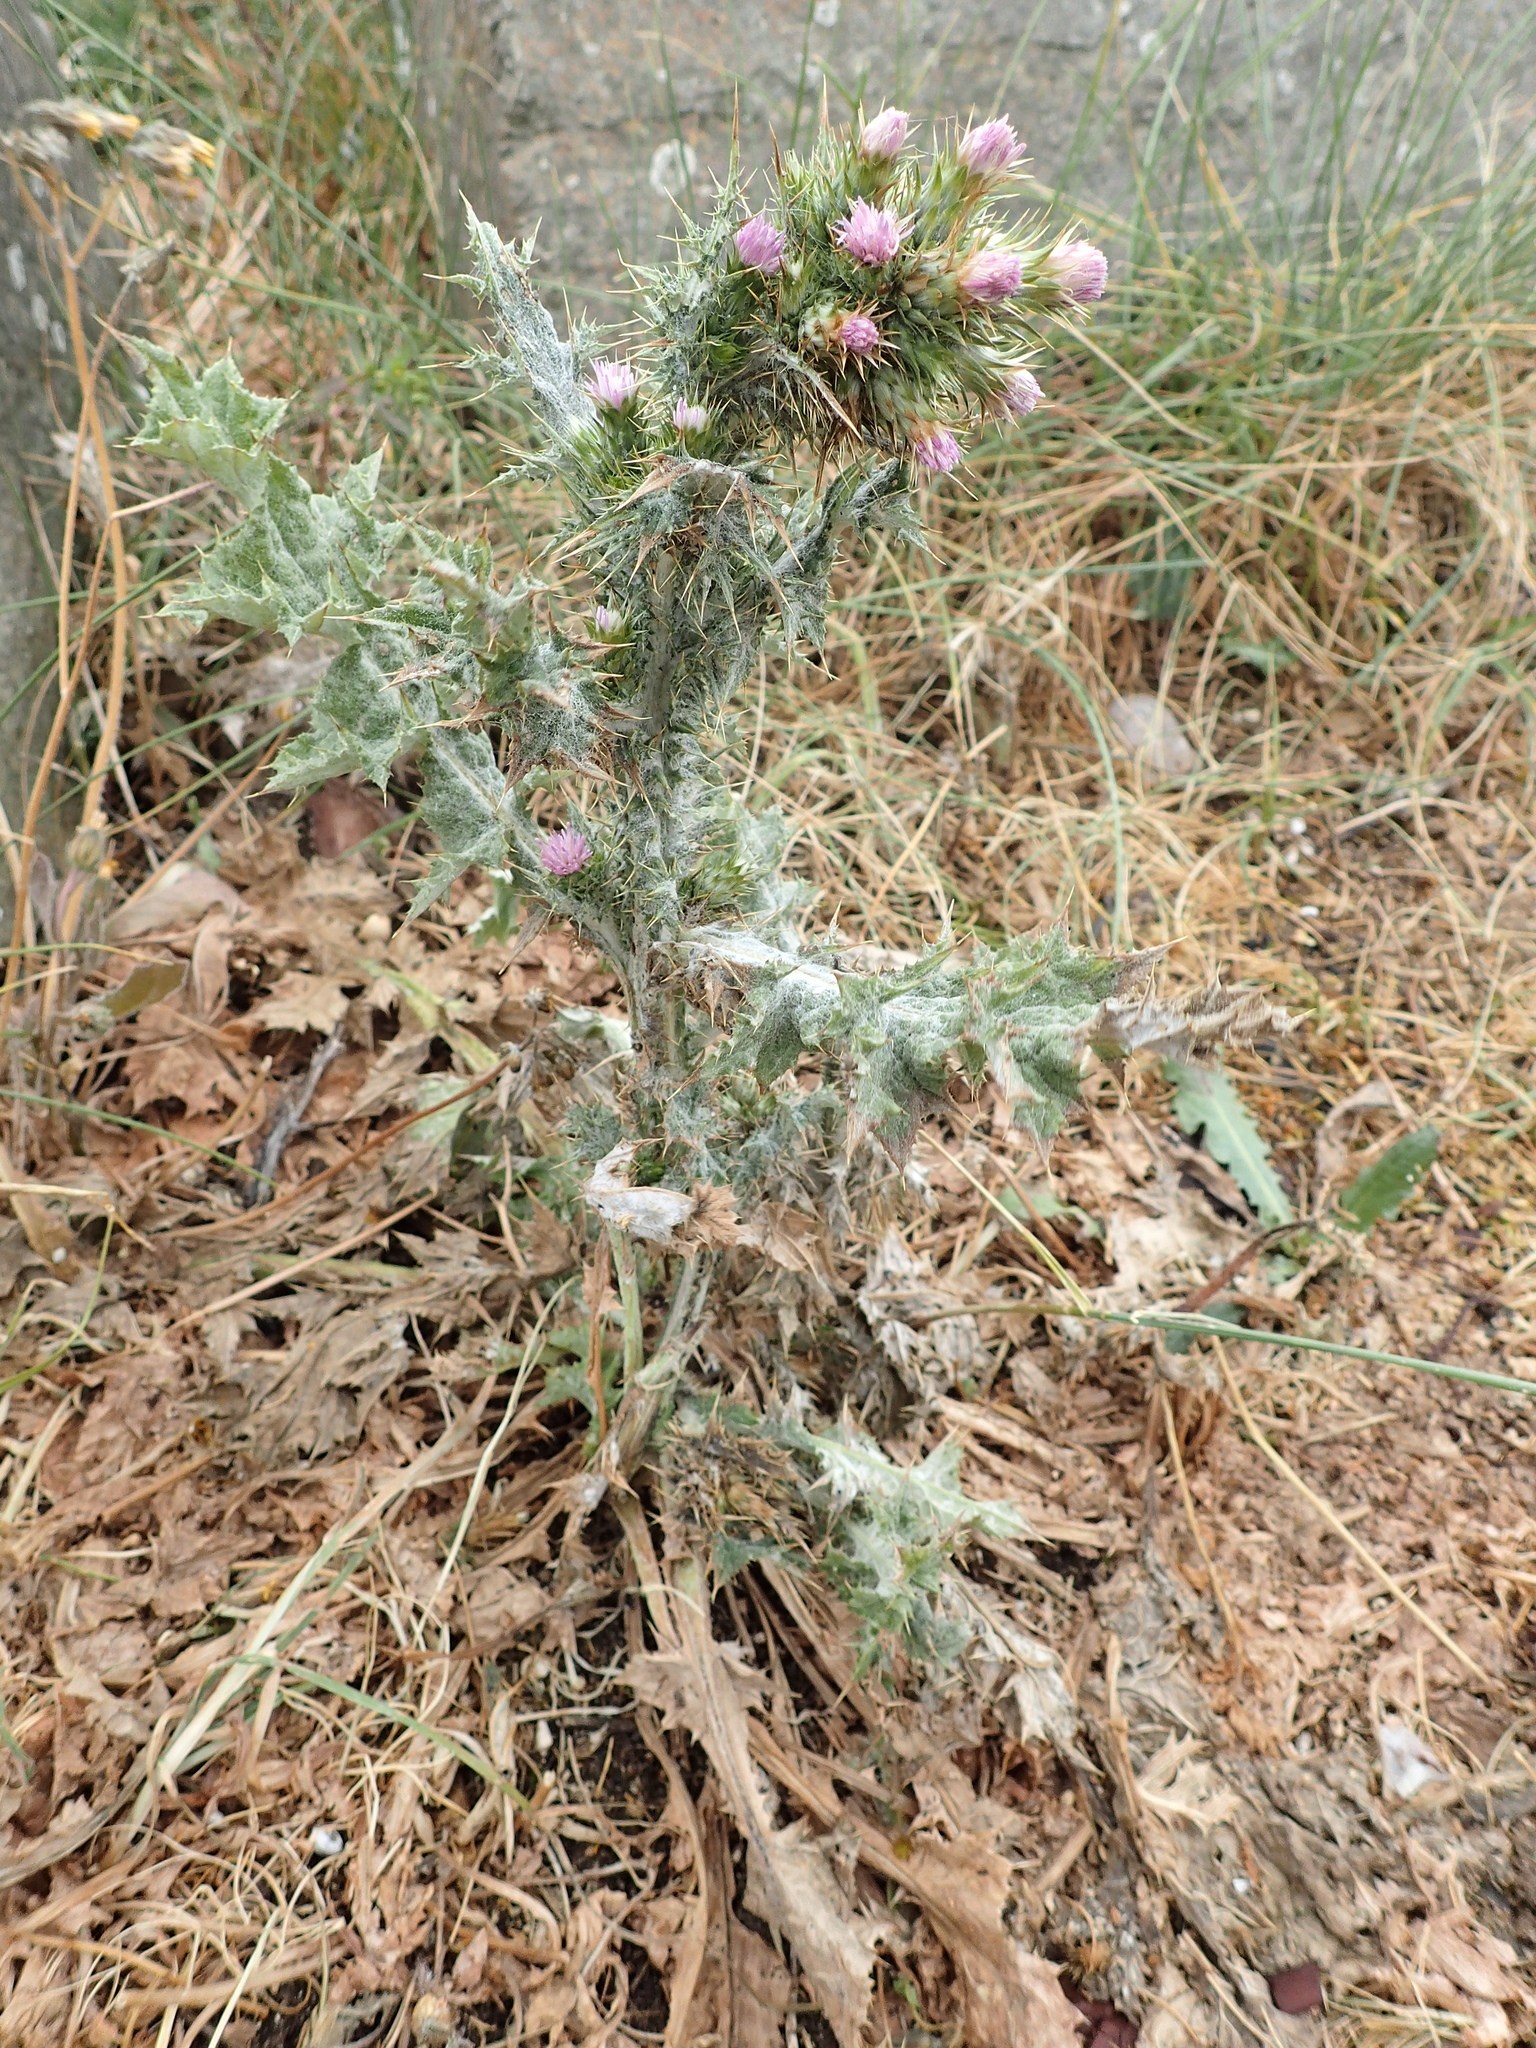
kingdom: Plantae
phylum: Tracheophyta
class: Magnoliopsida
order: Asterales
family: Asteraceae
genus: Carduus
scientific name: Carduus tenuiflorus
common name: Slender thistle
